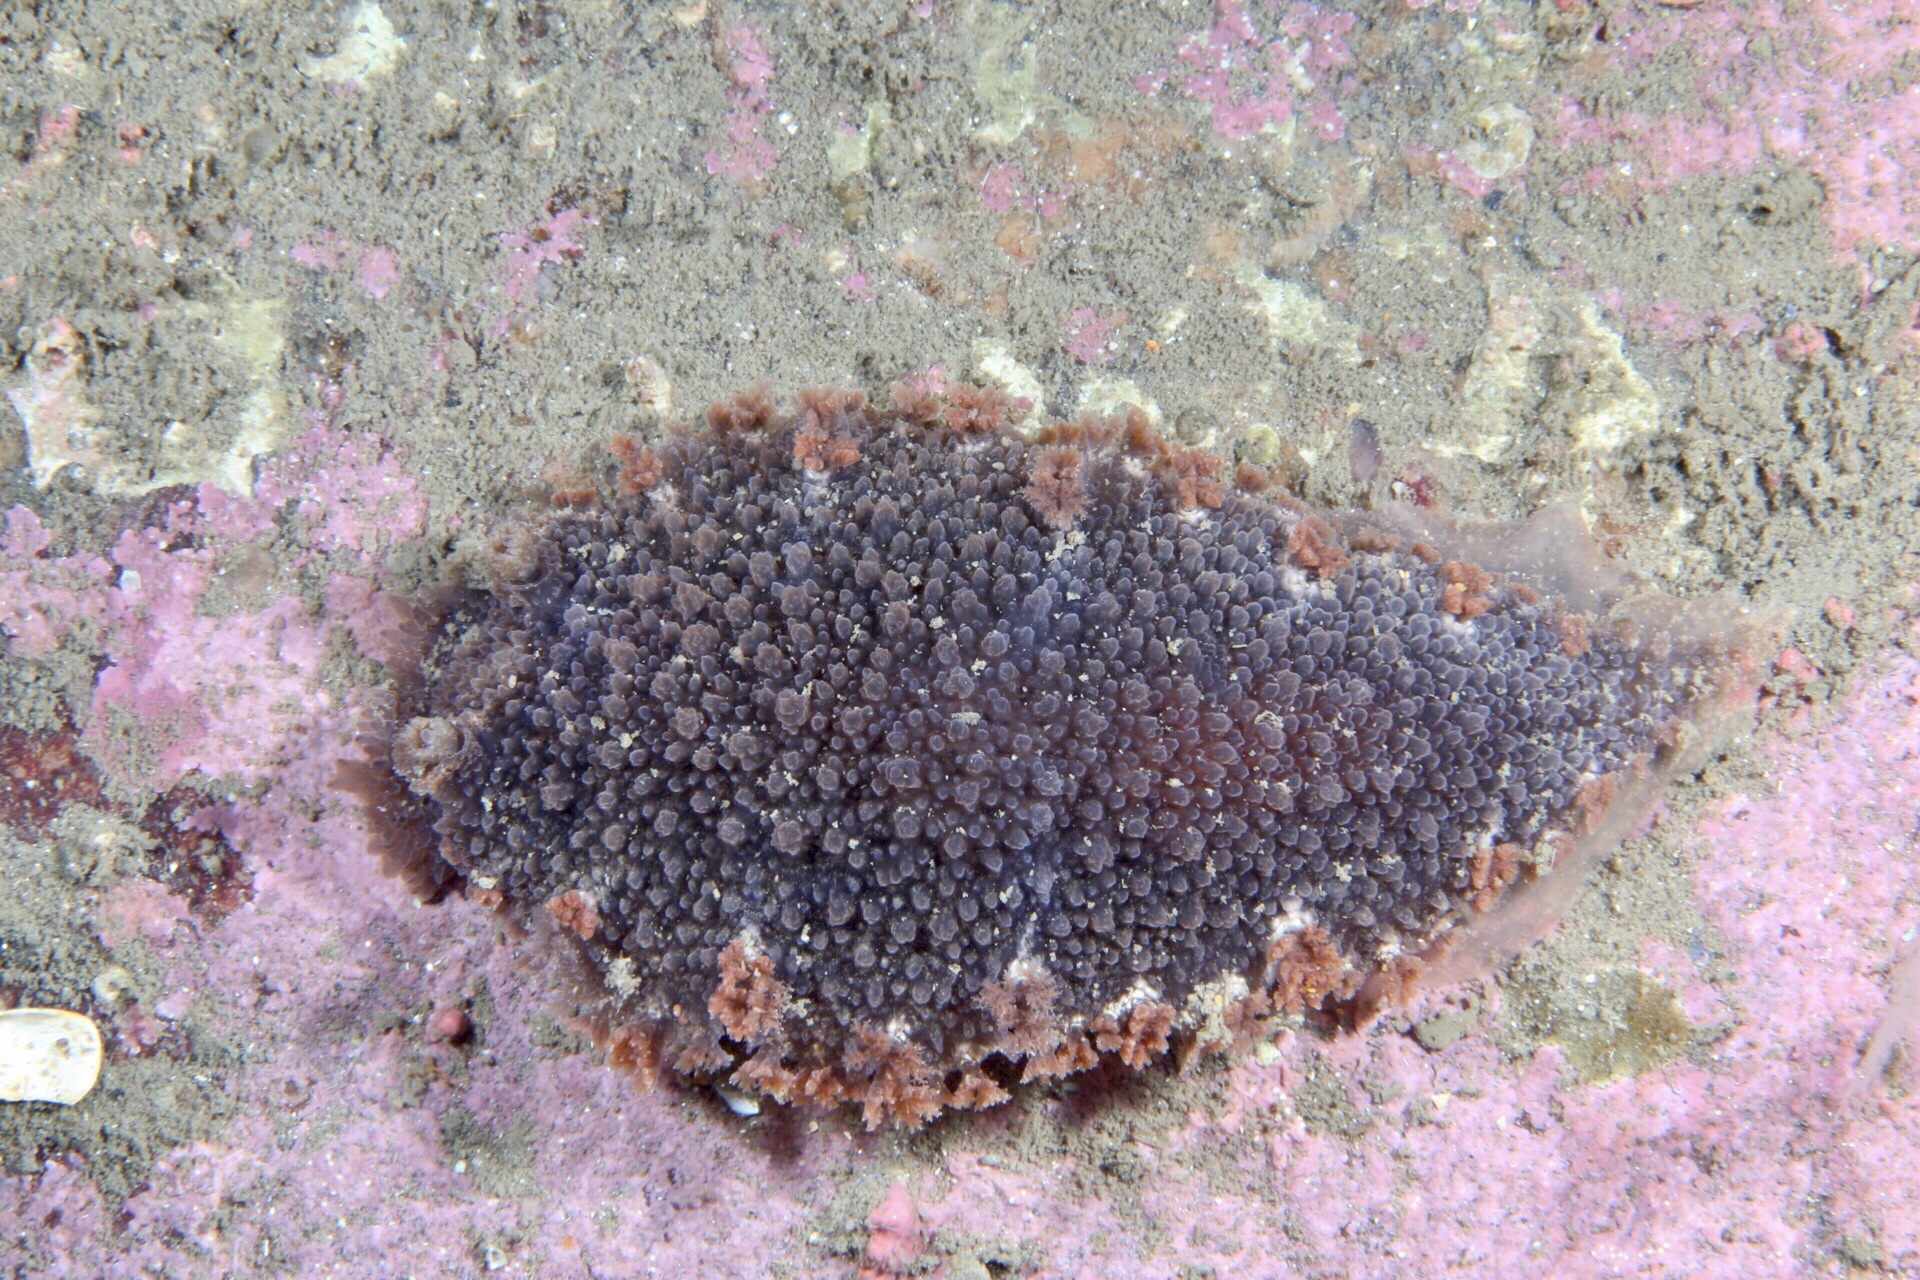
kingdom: Animalia
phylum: Mollusca
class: Gastropoda
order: Nudibranchia
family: Tritoniidae
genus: Tritonia
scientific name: Tritonia hombergii
